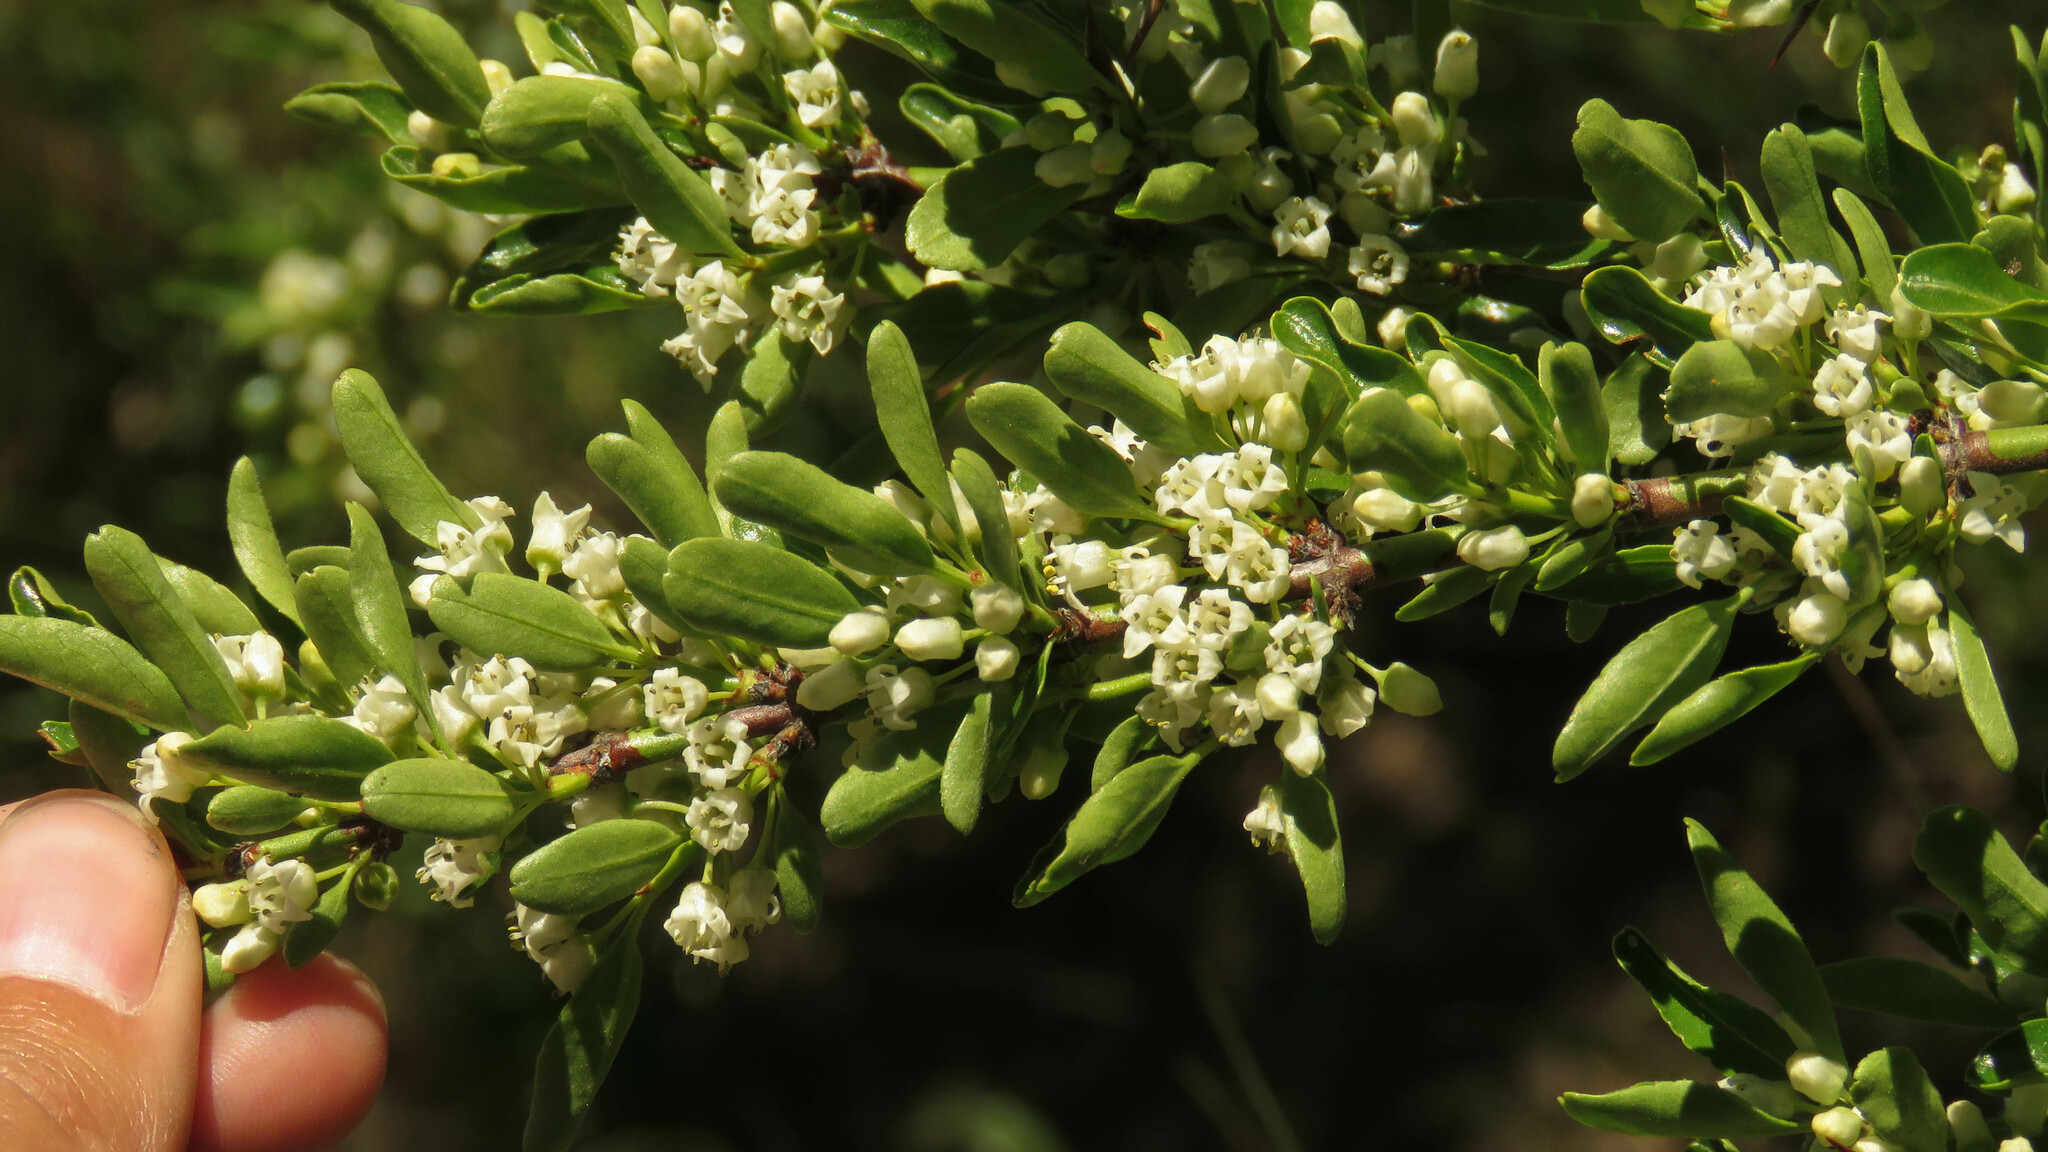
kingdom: Plantae
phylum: Tracheophyta
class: Magnoliopsida
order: Rosales
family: Rhamnaceae
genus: Discaria
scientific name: Discaria chacaye
